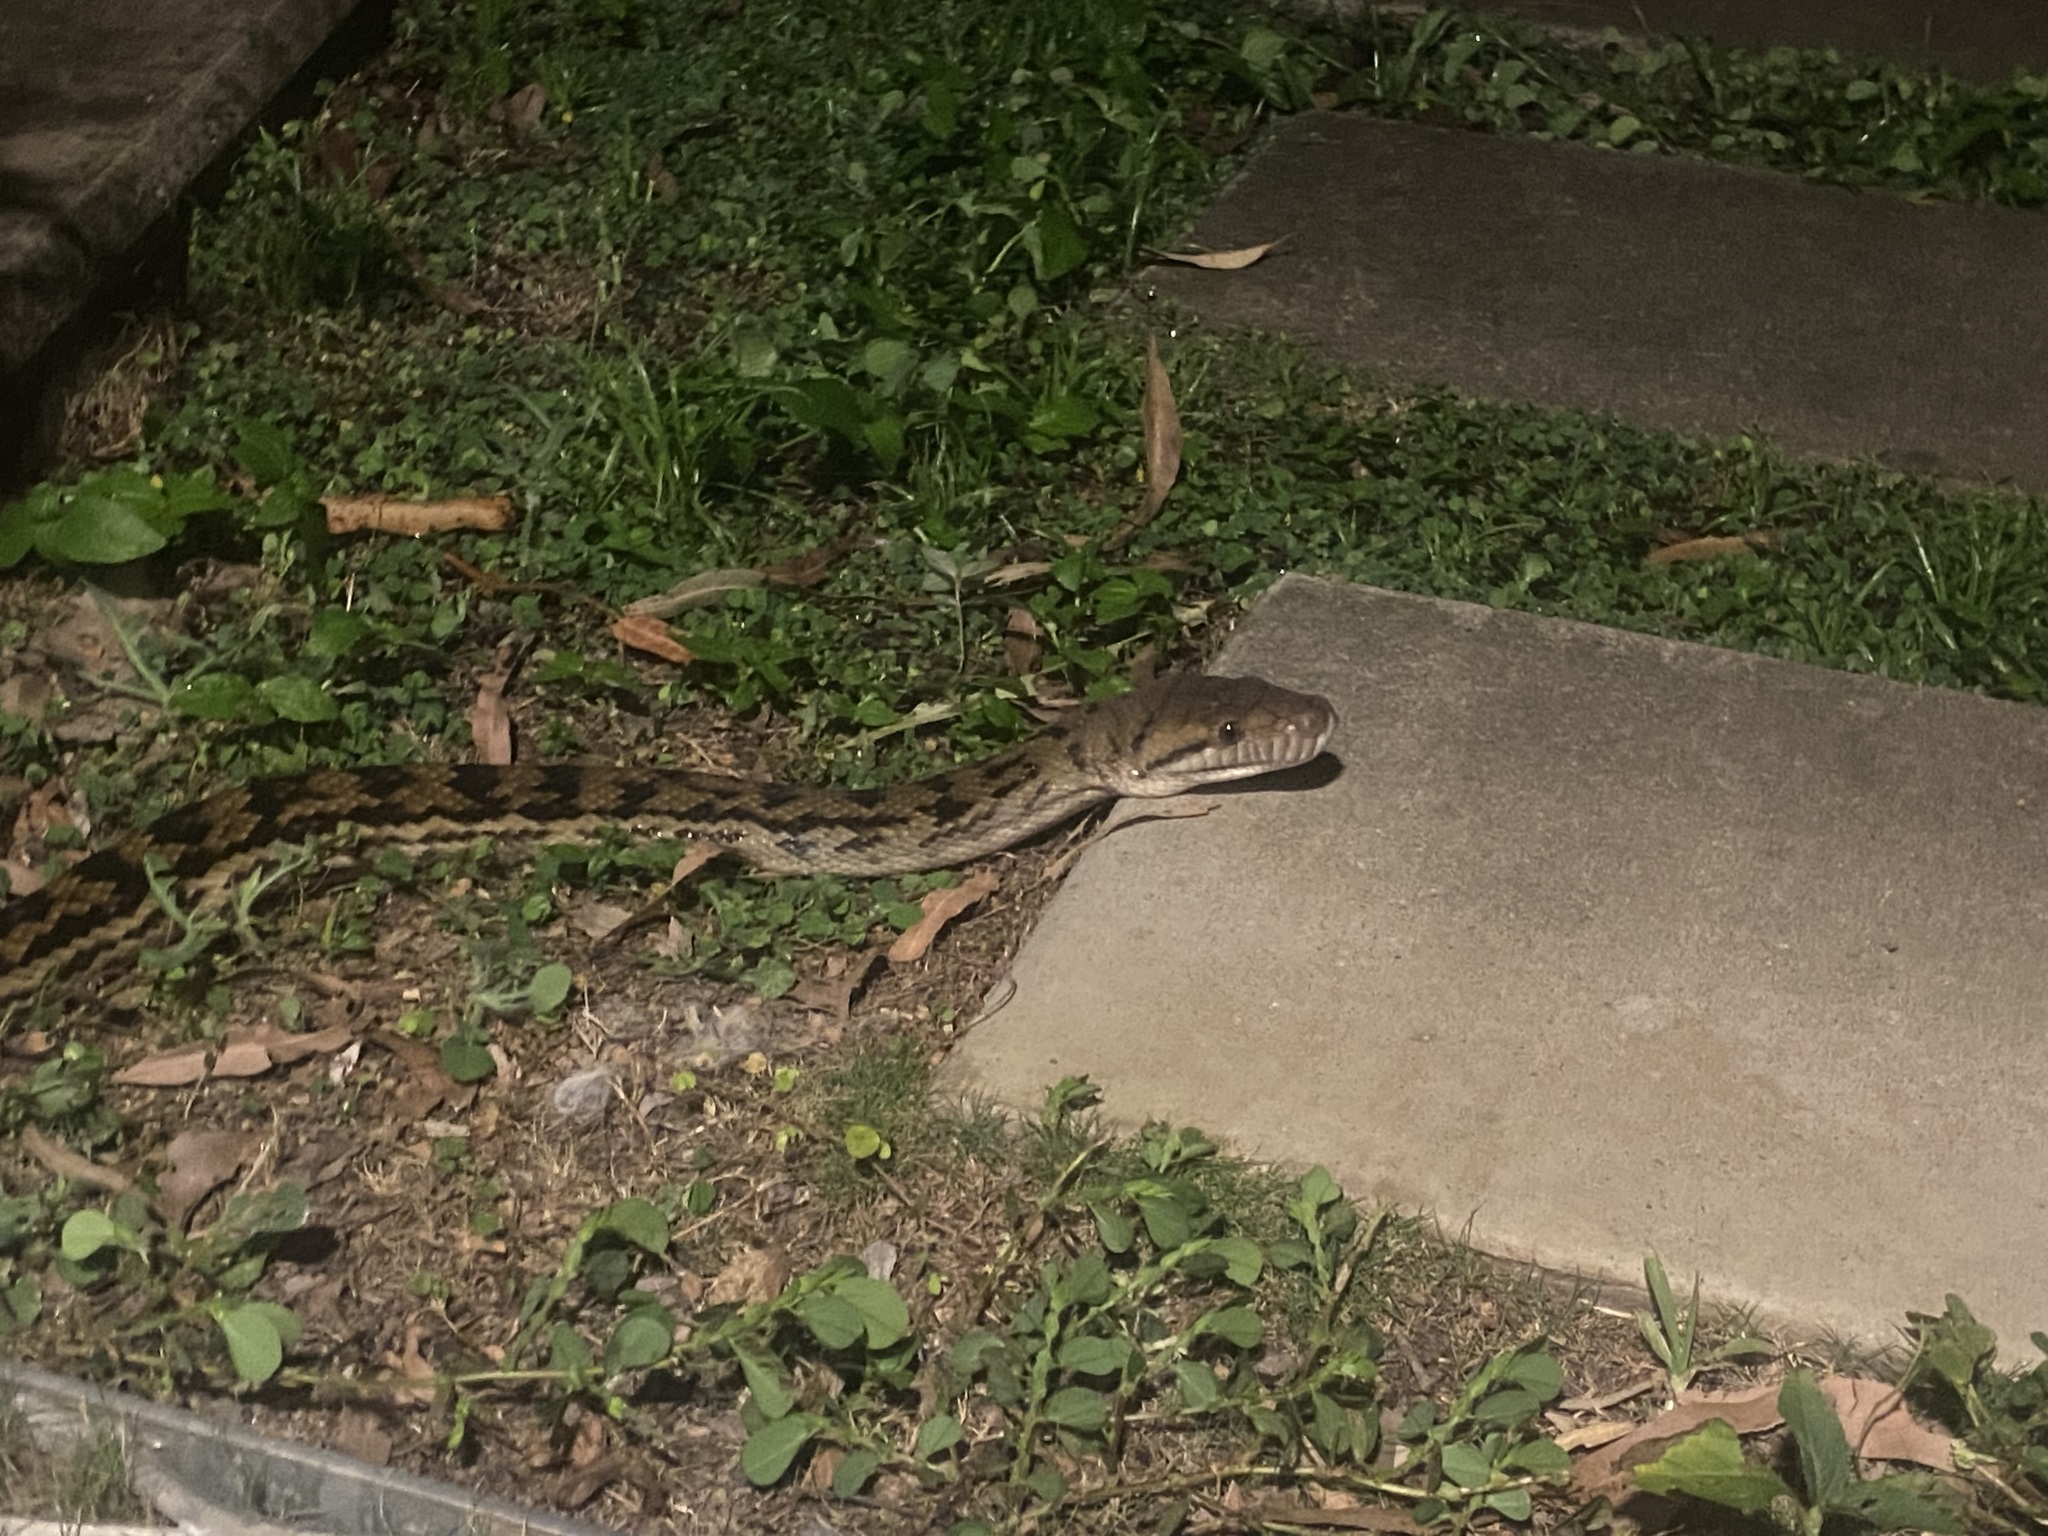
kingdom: Animalia
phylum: Chordata
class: Squamata
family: Pythonidae
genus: Simalia
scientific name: Simalia kinghorni
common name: Scrub python
